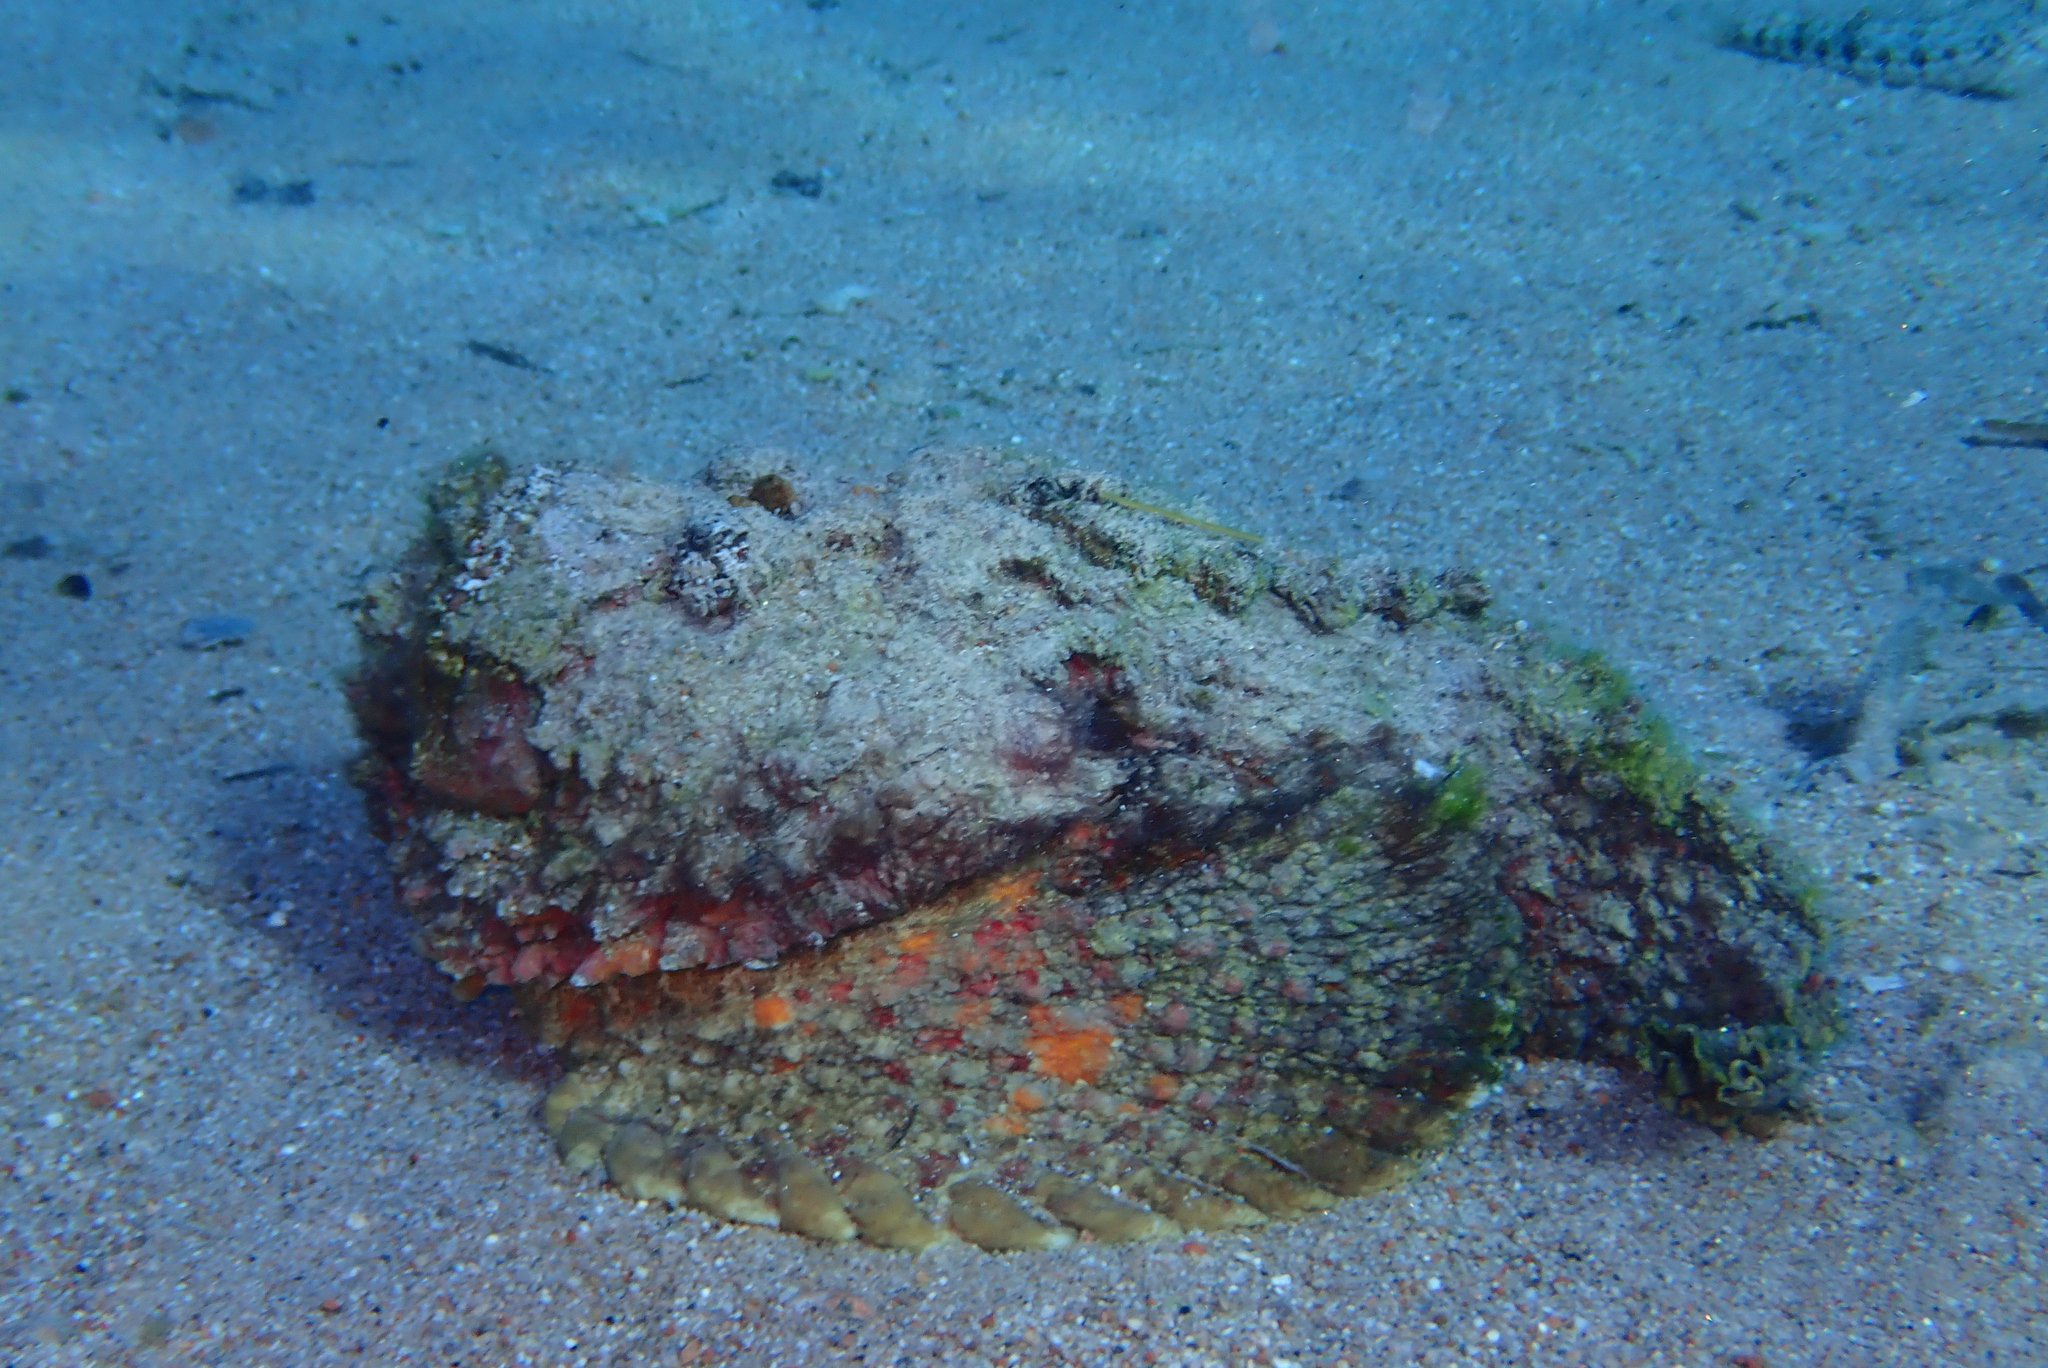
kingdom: Animalia
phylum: Chordata
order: Scorpaeniformes
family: Synanceiidae
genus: Synanceia
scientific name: Synanceia verrucosa
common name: Stonefish
